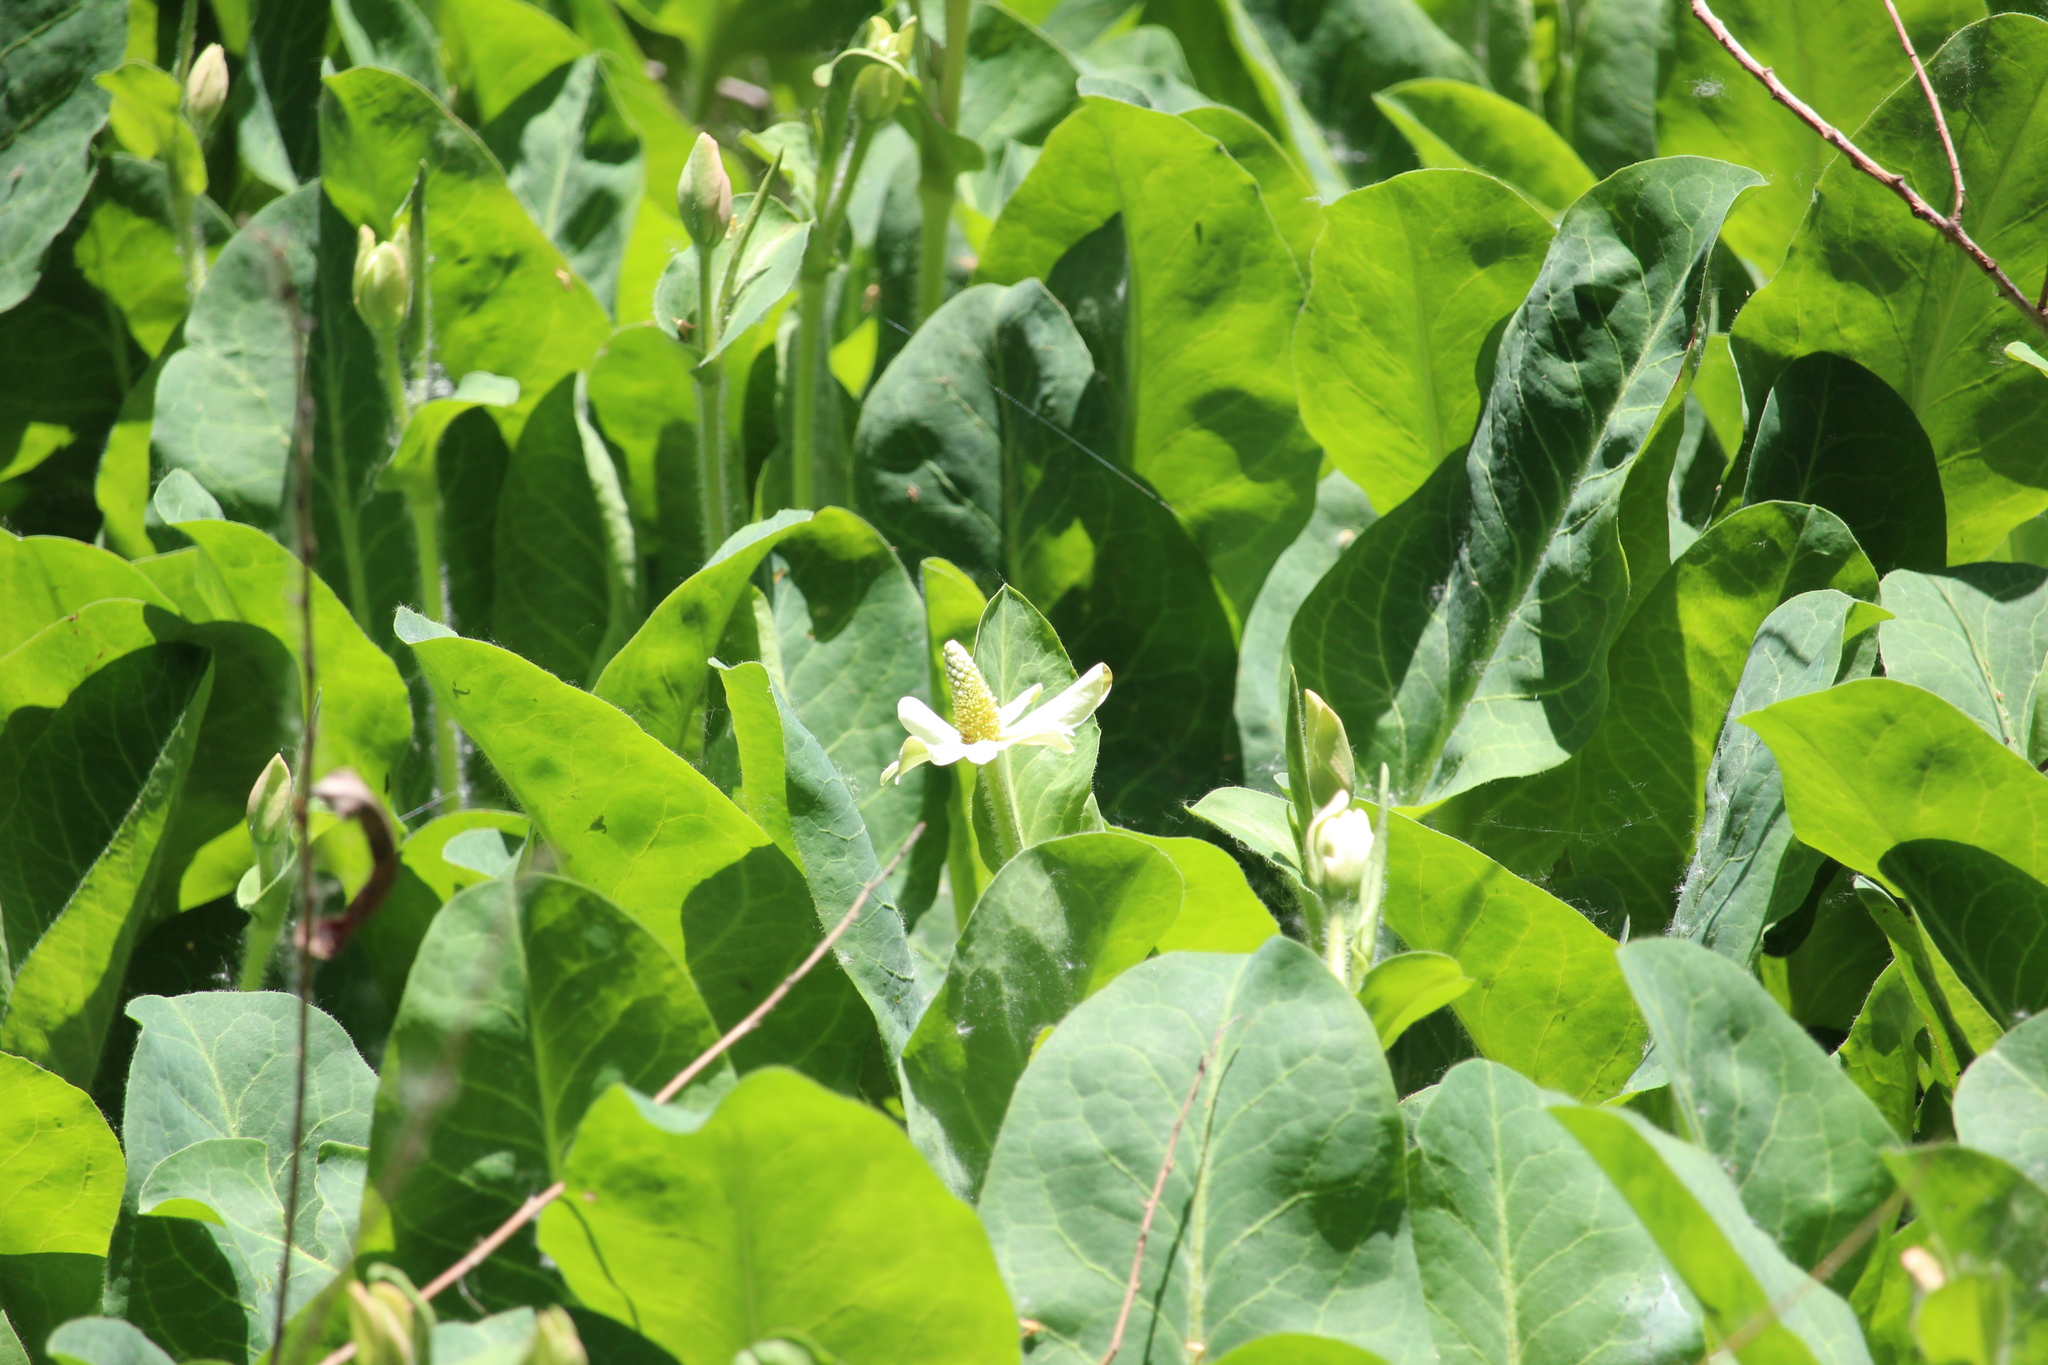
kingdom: Plantae
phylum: Tracheophyta
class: Magnoliopsida
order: Piperales
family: Saururaceae
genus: Anemopsis
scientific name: Anemopsis californica
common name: Apache-beads
